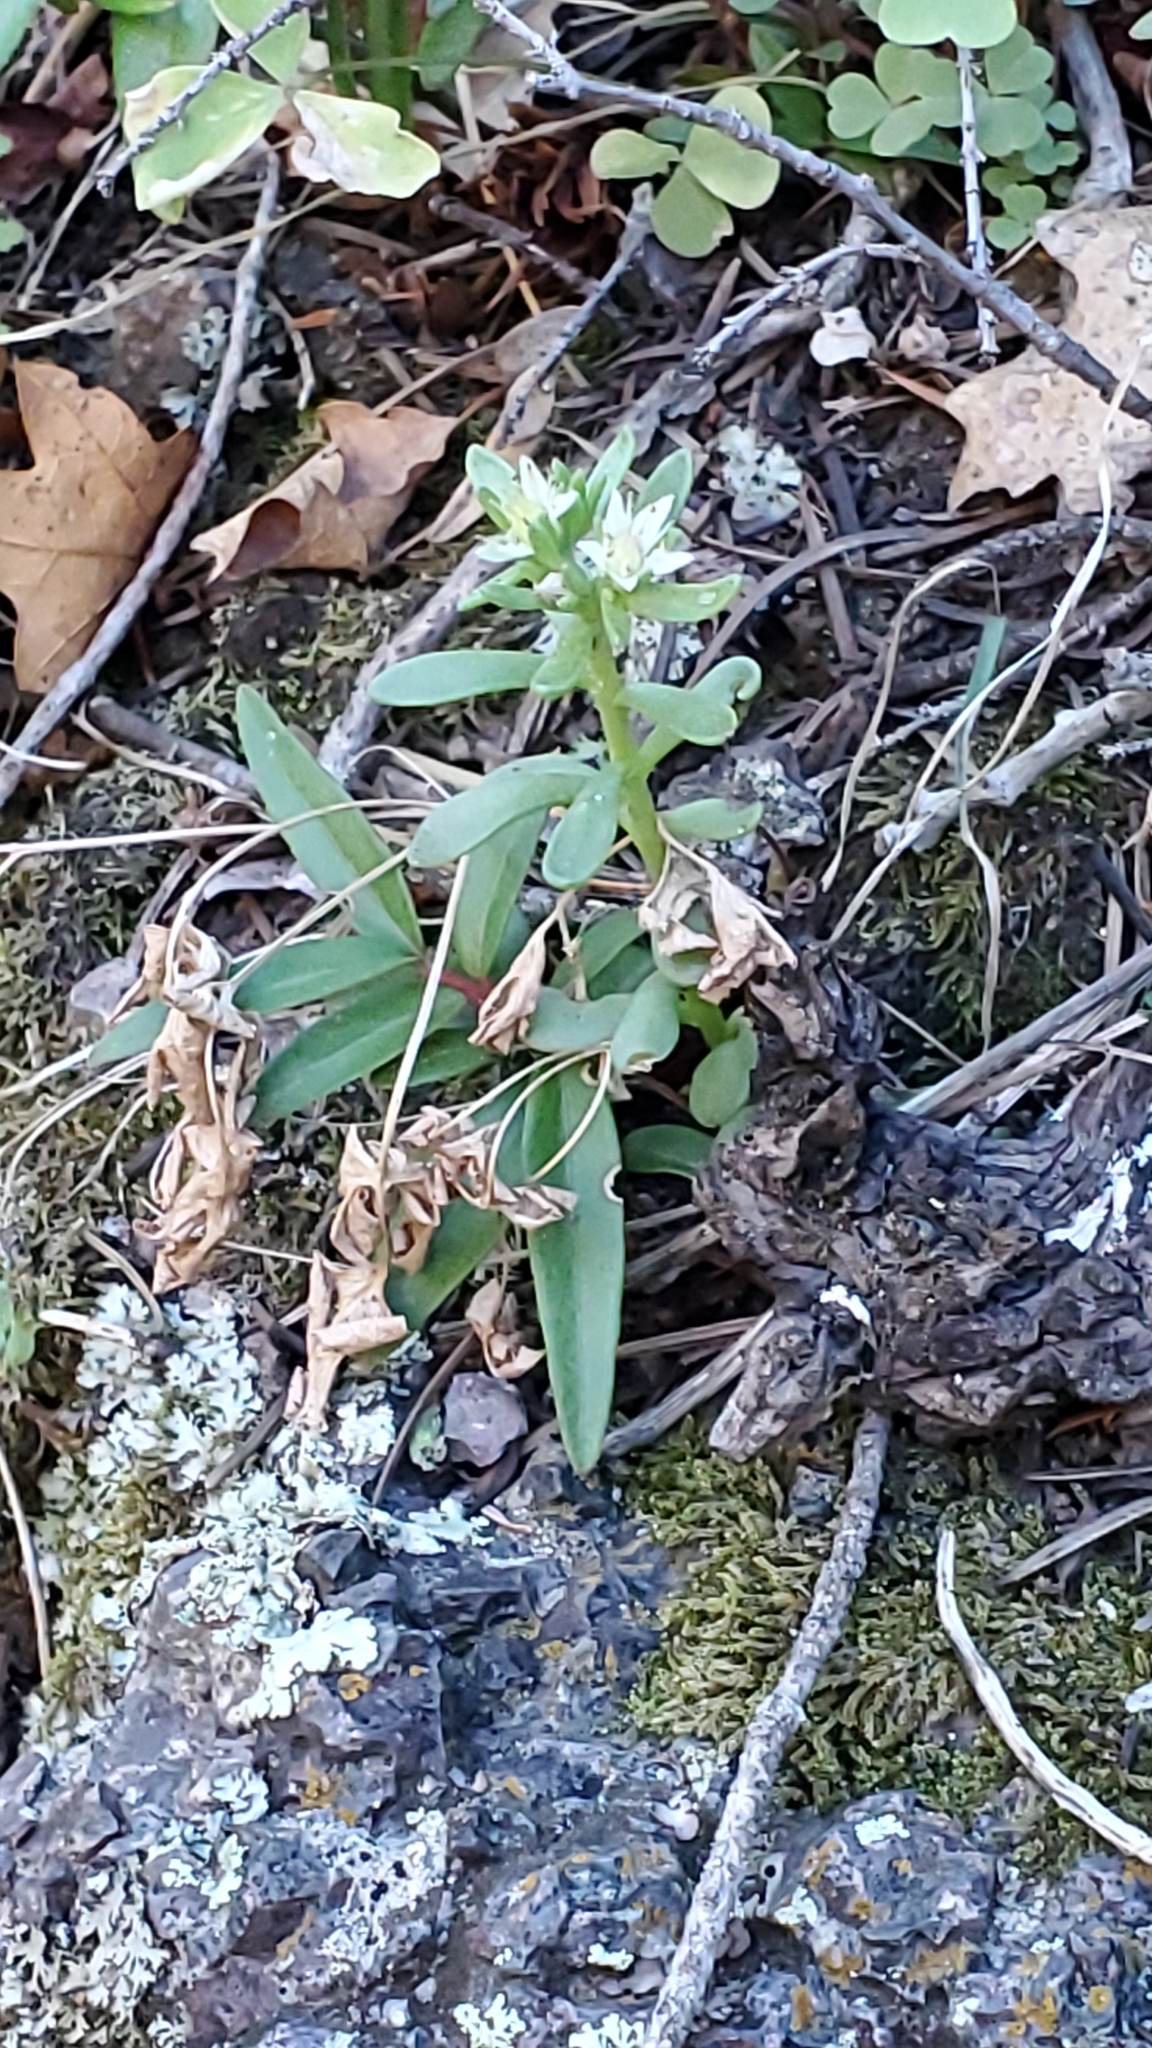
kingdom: Plantae
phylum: Tracheophyta
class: Magnoliopsida
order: Saxifragales
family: Crassulaceae
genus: Sedum
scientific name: Sedum cockerellii
